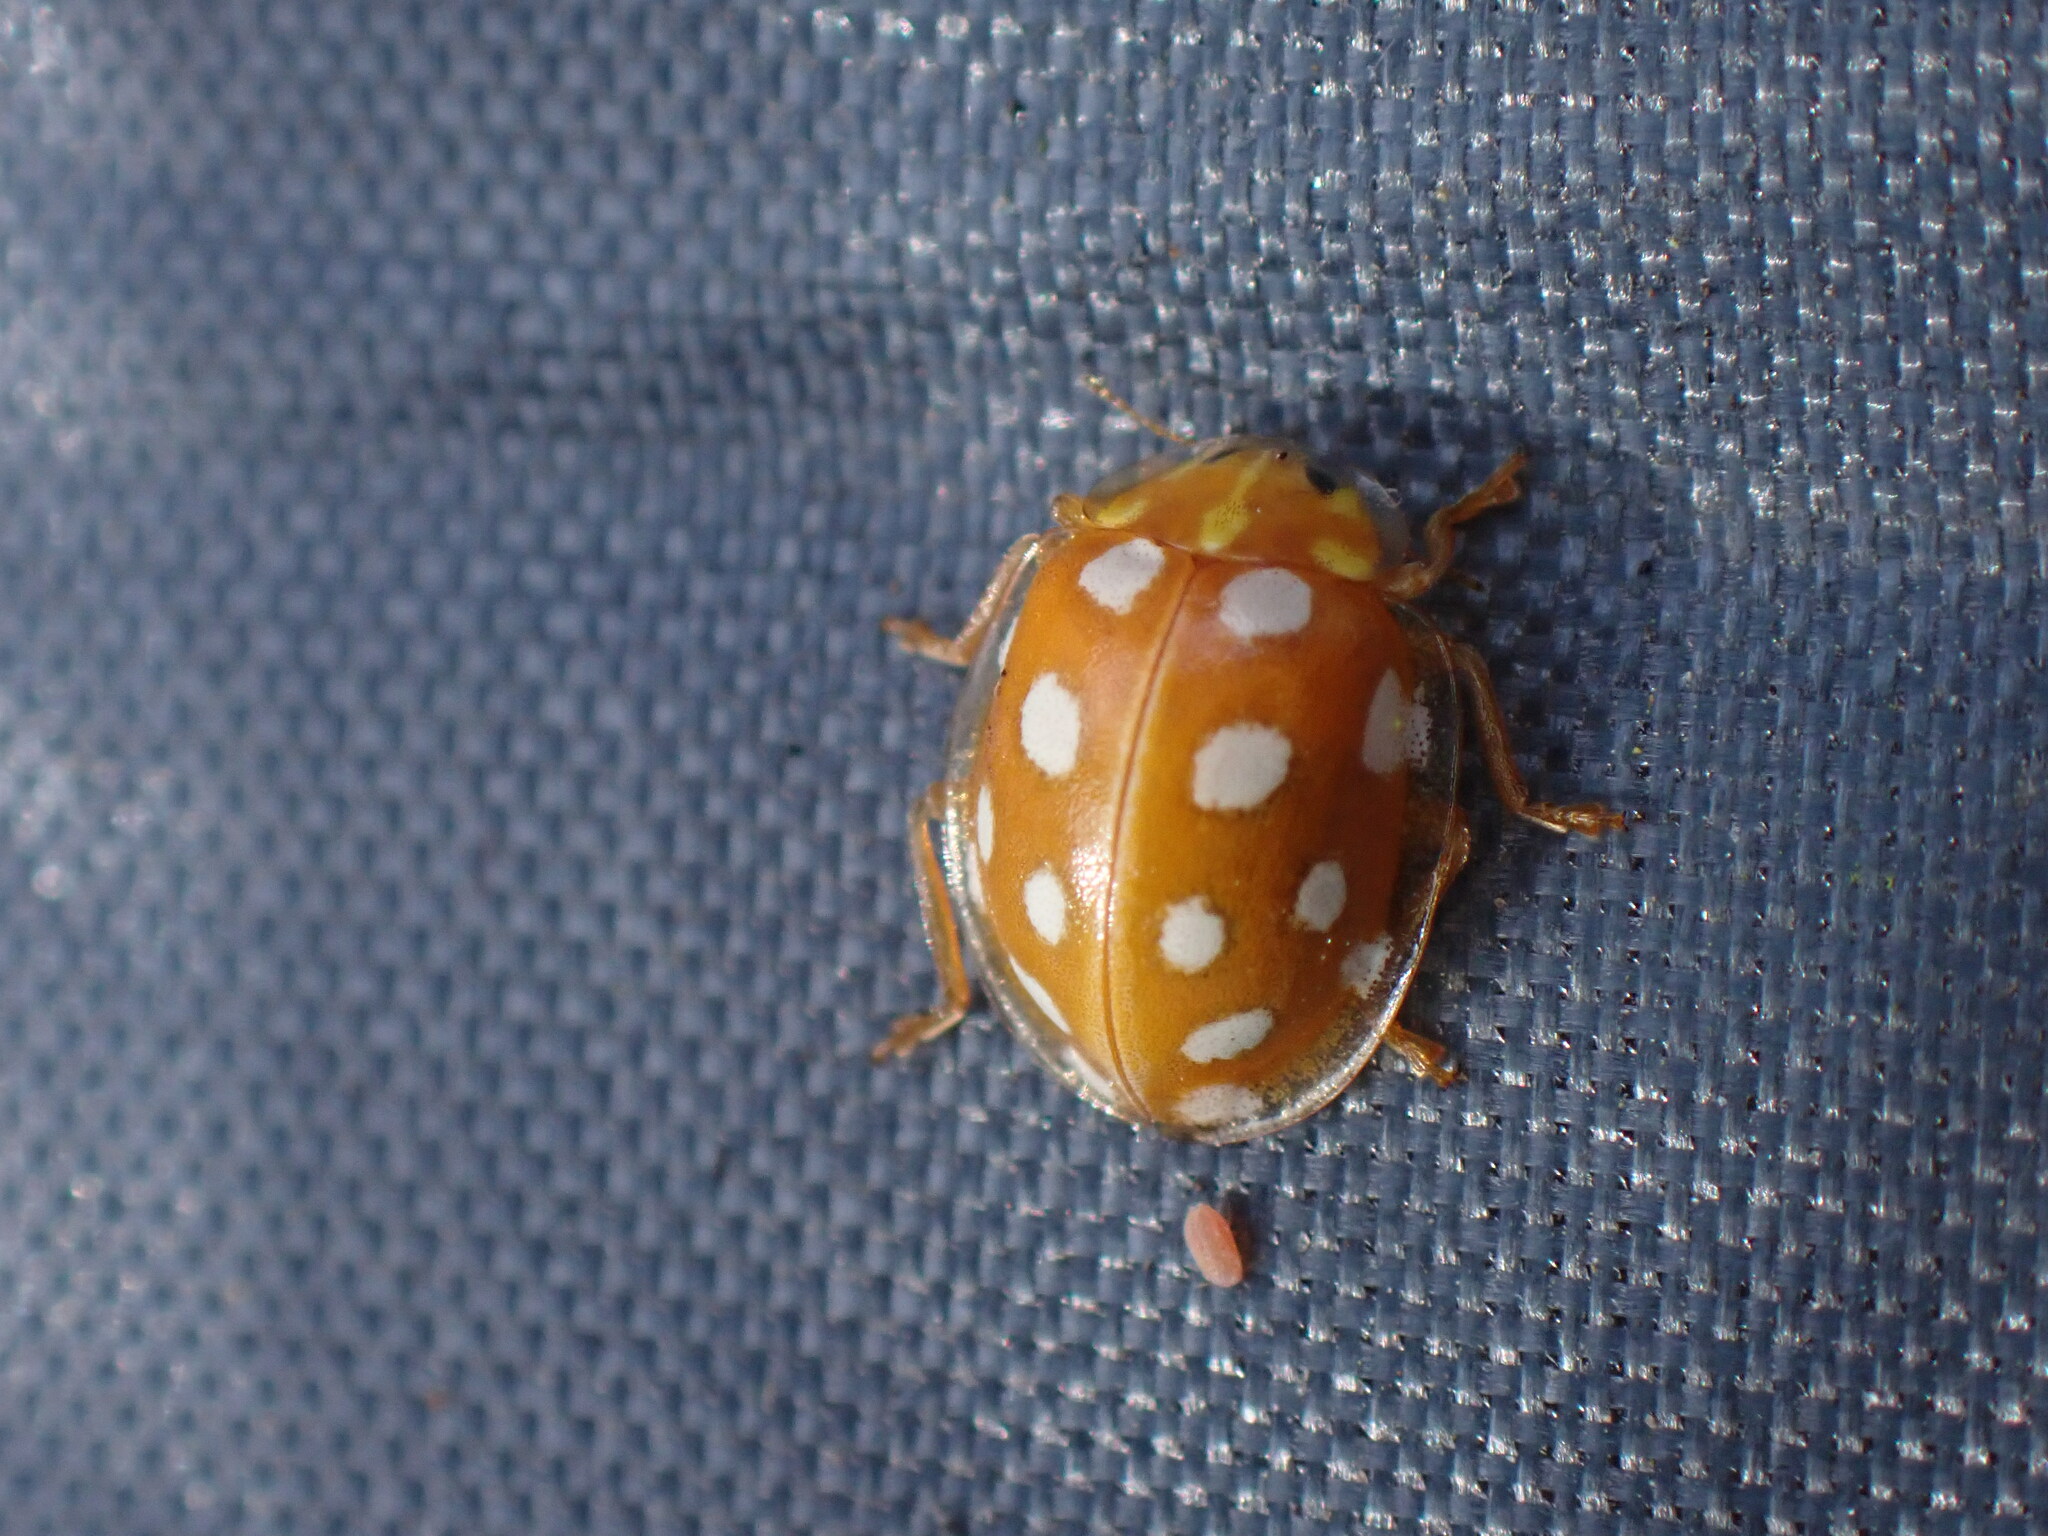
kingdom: Animalia
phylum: Arthropoda
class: Insecta
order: Coleoptera
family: Coccinellidae
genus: Halyzia
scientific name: Halyzia sedecimguttata
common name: Orange ladybird
